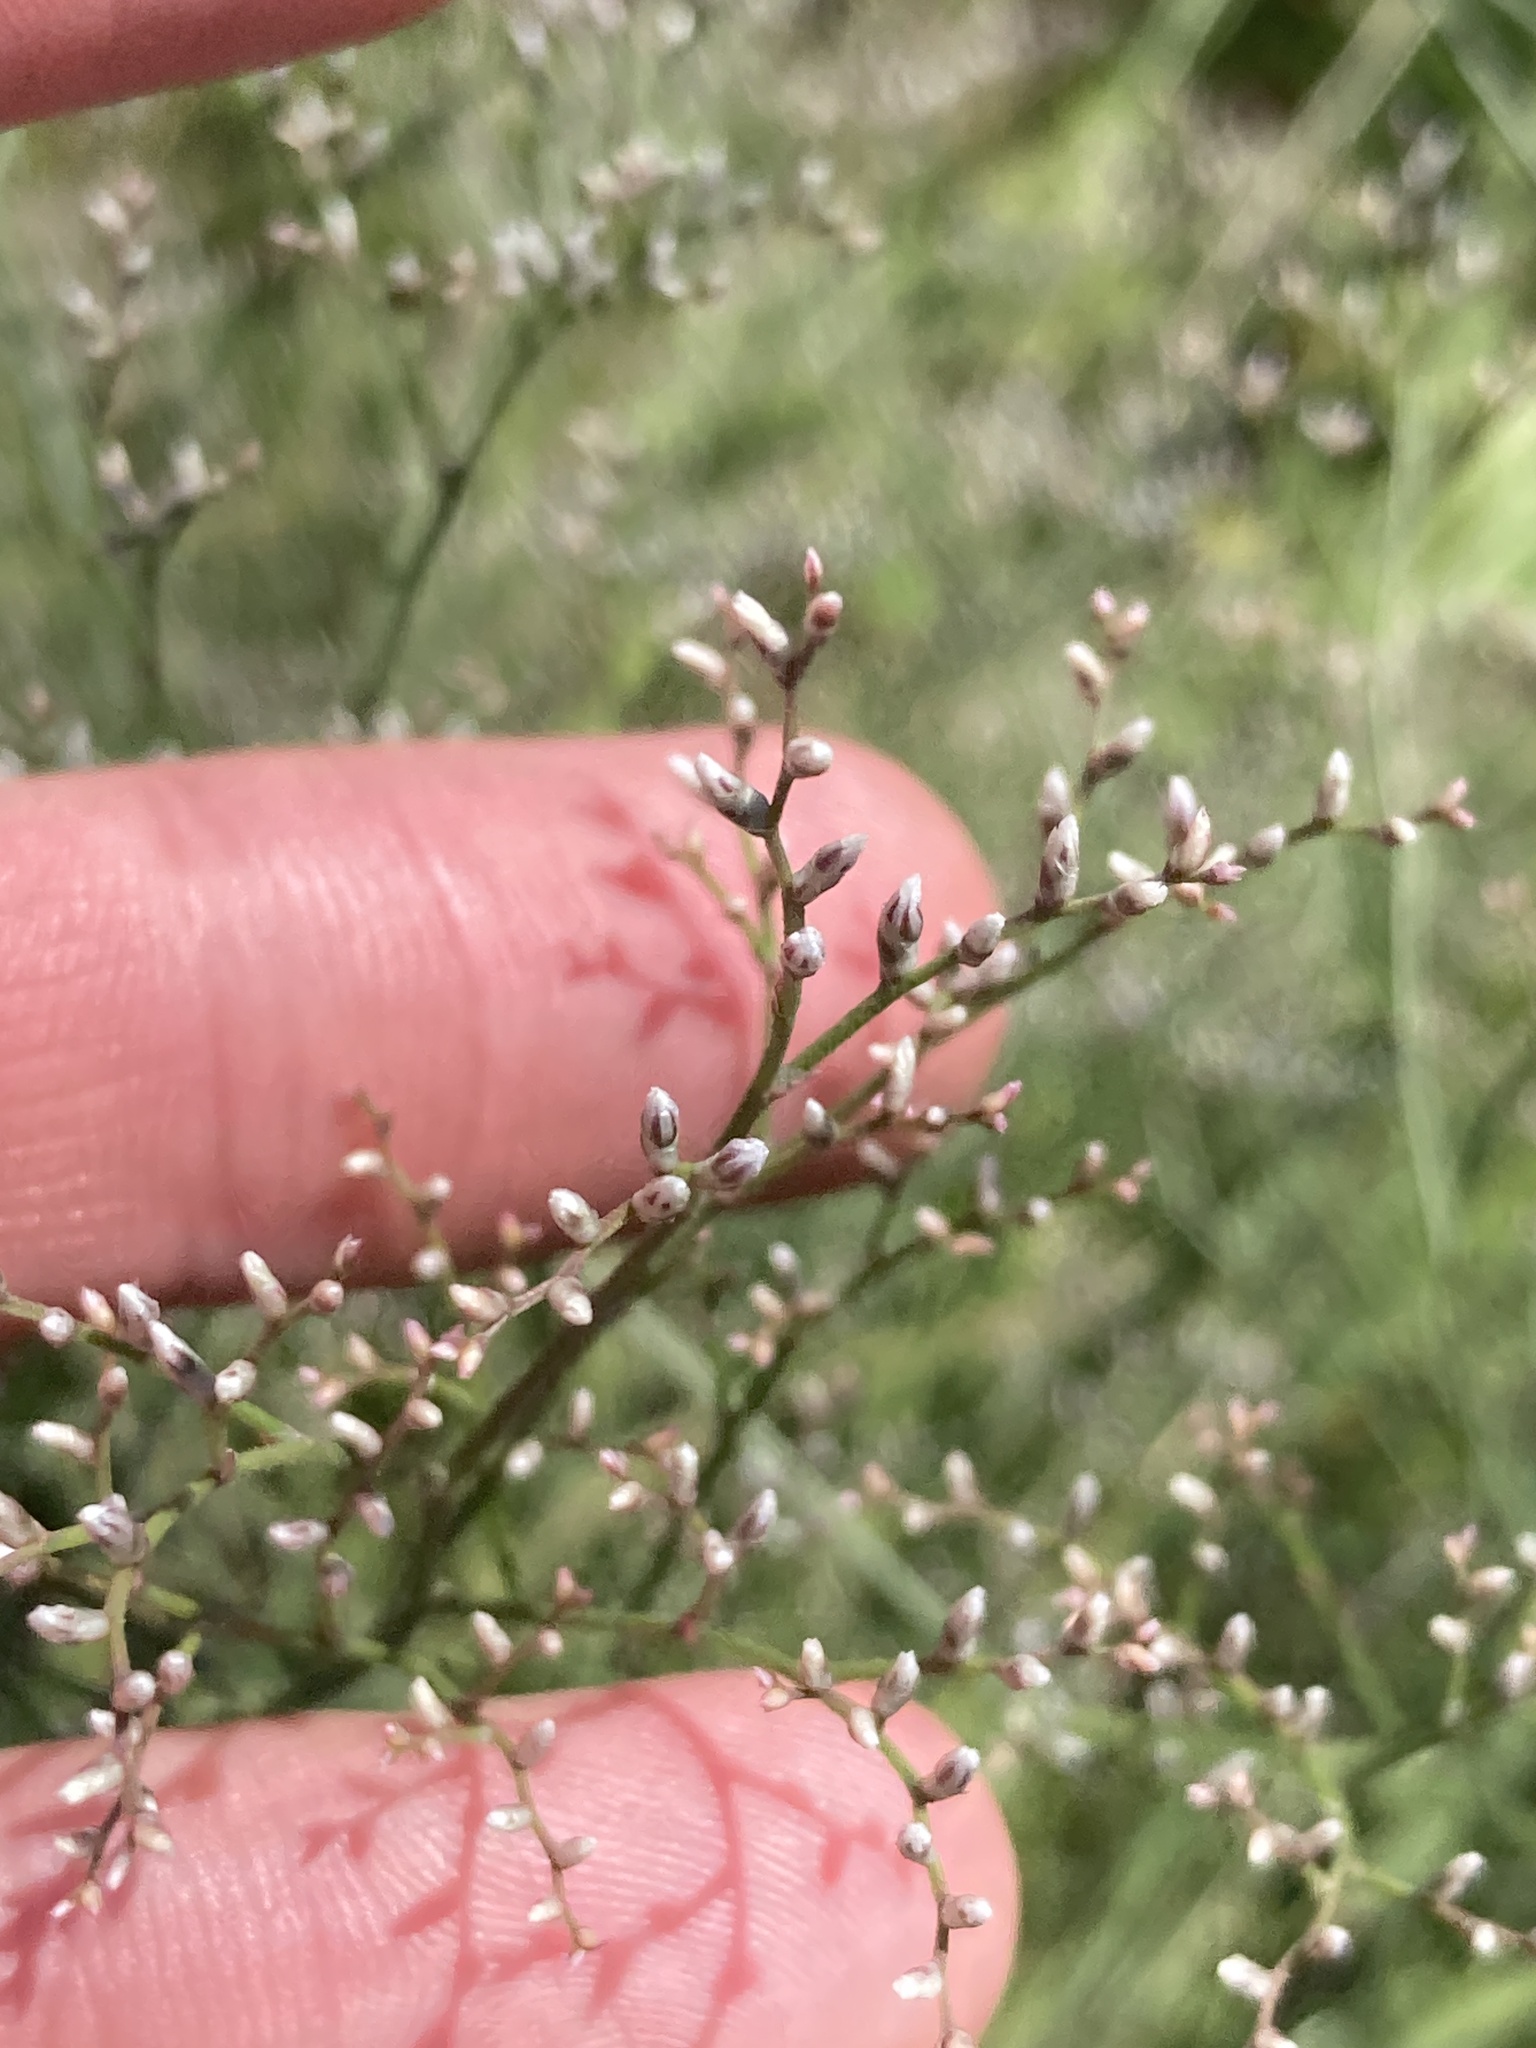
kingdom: Plantae
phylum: Tracheophyta
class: Magnoliopsida
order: Caryophyllales
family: Plumbaginaceae
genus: Limonium
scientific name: Limonium platyphyllum
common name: Florist's sea lavender
